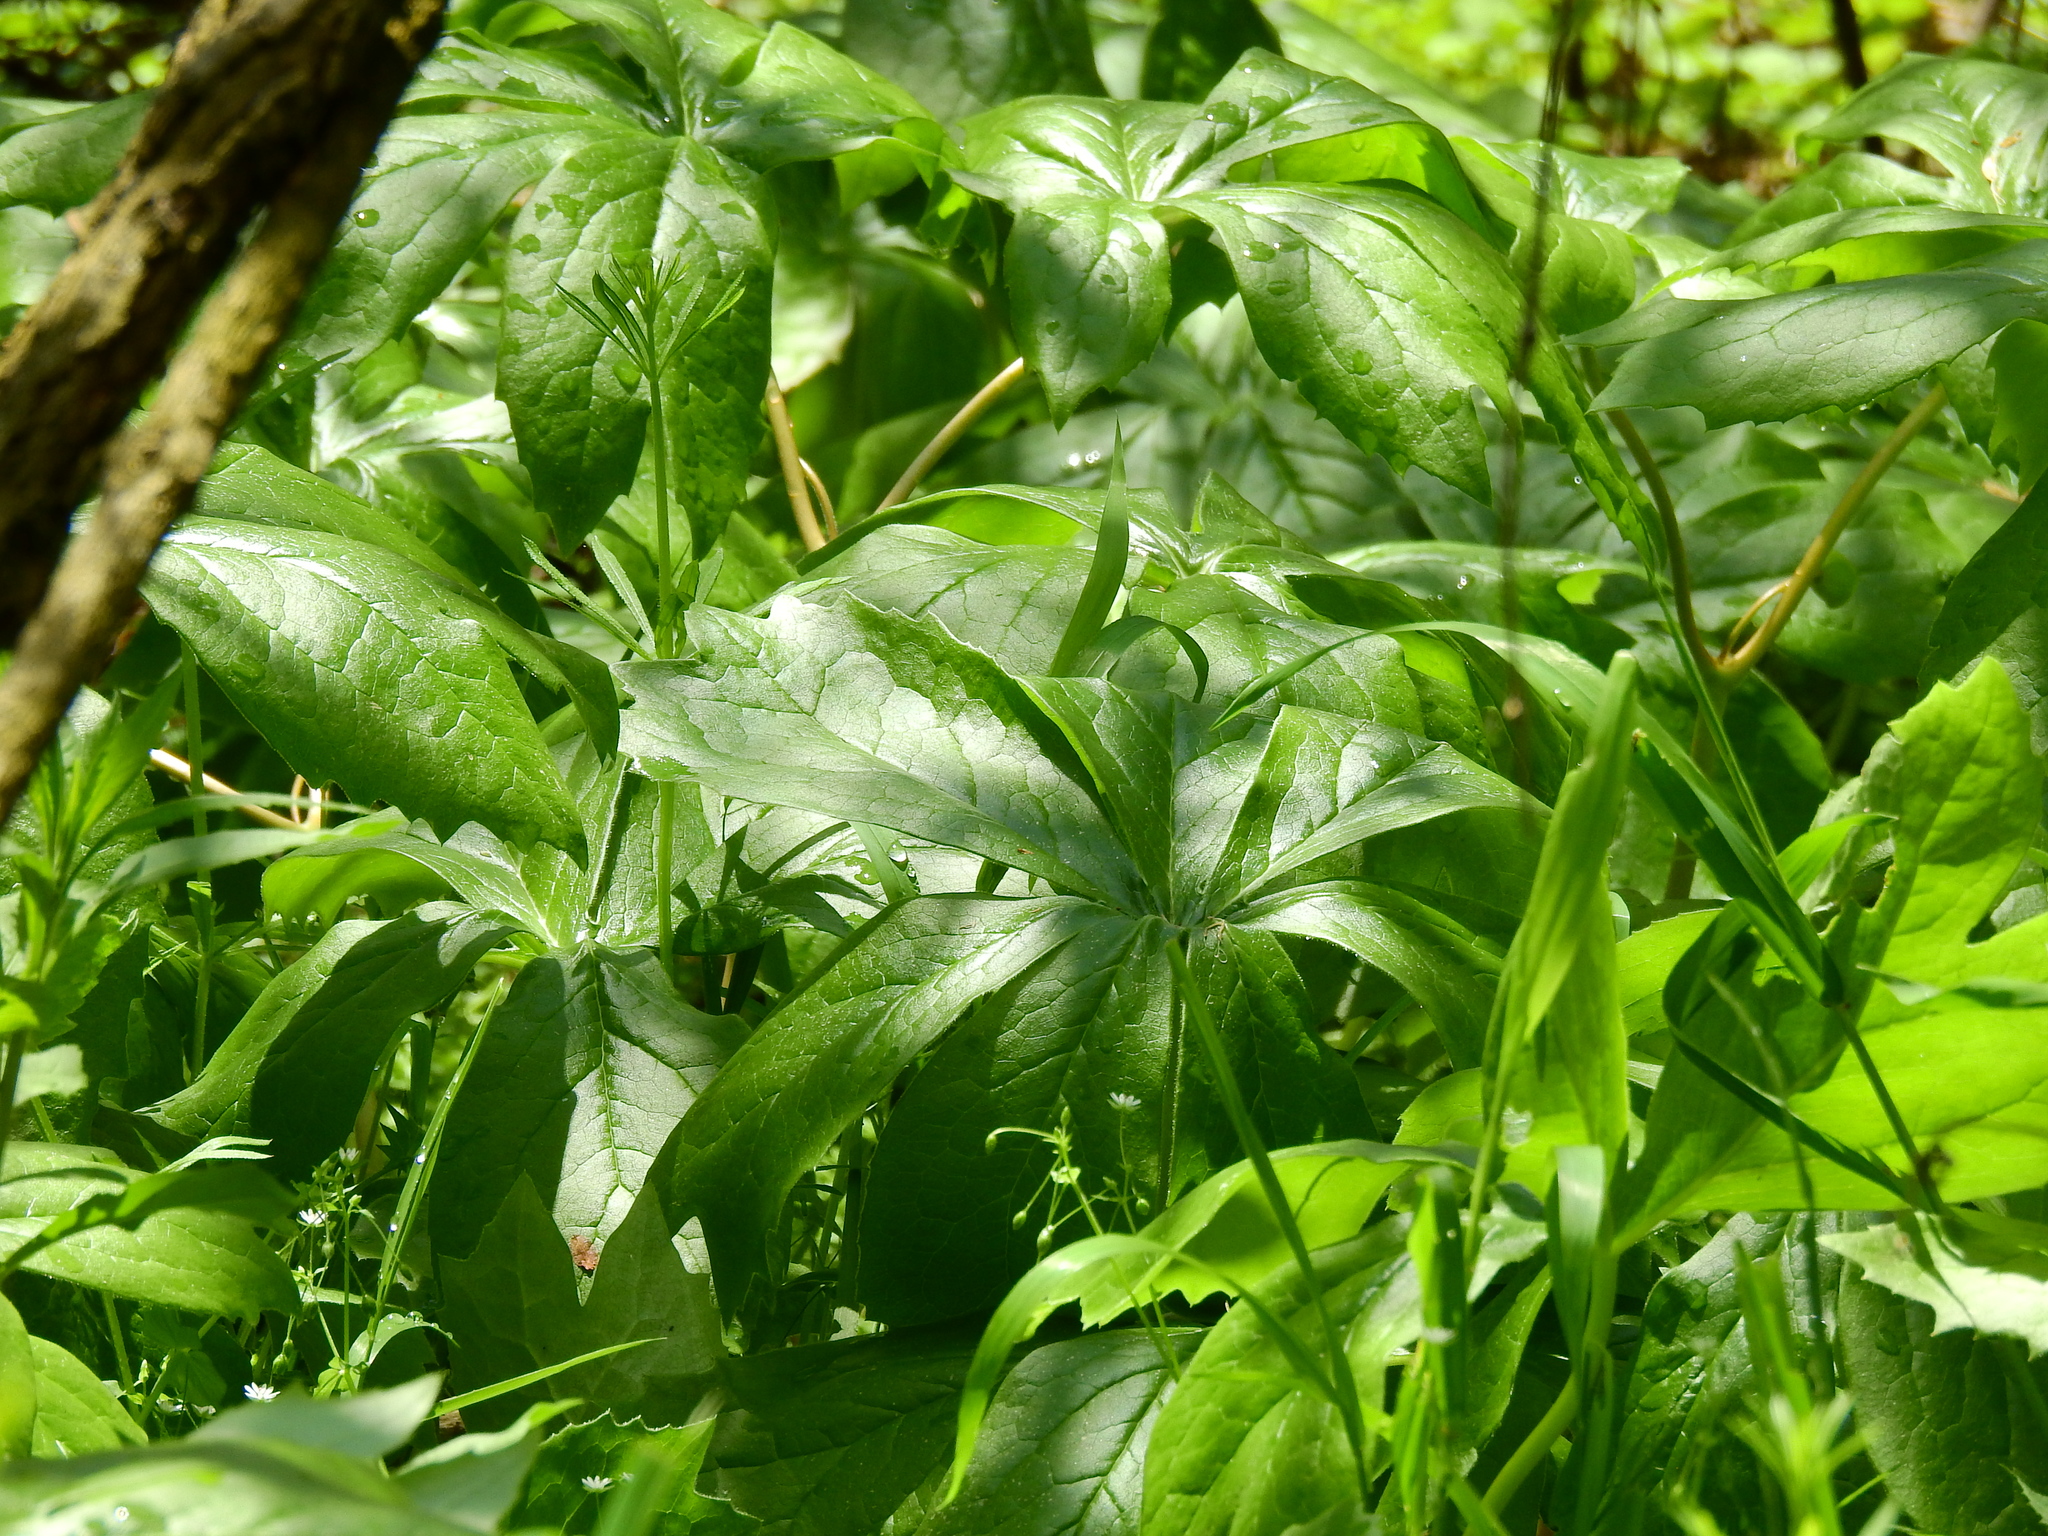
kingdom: Plantae
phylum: Tracheophyta
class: Magnoliopsida
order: Ranunculales
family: Berberidaceae
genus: Podophyllum
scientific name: Podophyllum peltatum
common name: Wild mandrake
